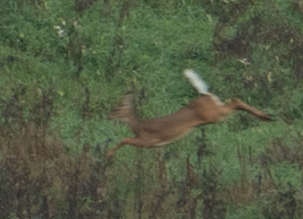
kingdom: Animalia
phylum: Chordata
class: Mammalia
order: Artiodactyla
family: Cervidae
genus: Odocoileus
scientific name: Odocoileus virginianus
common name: White-tailed deer
